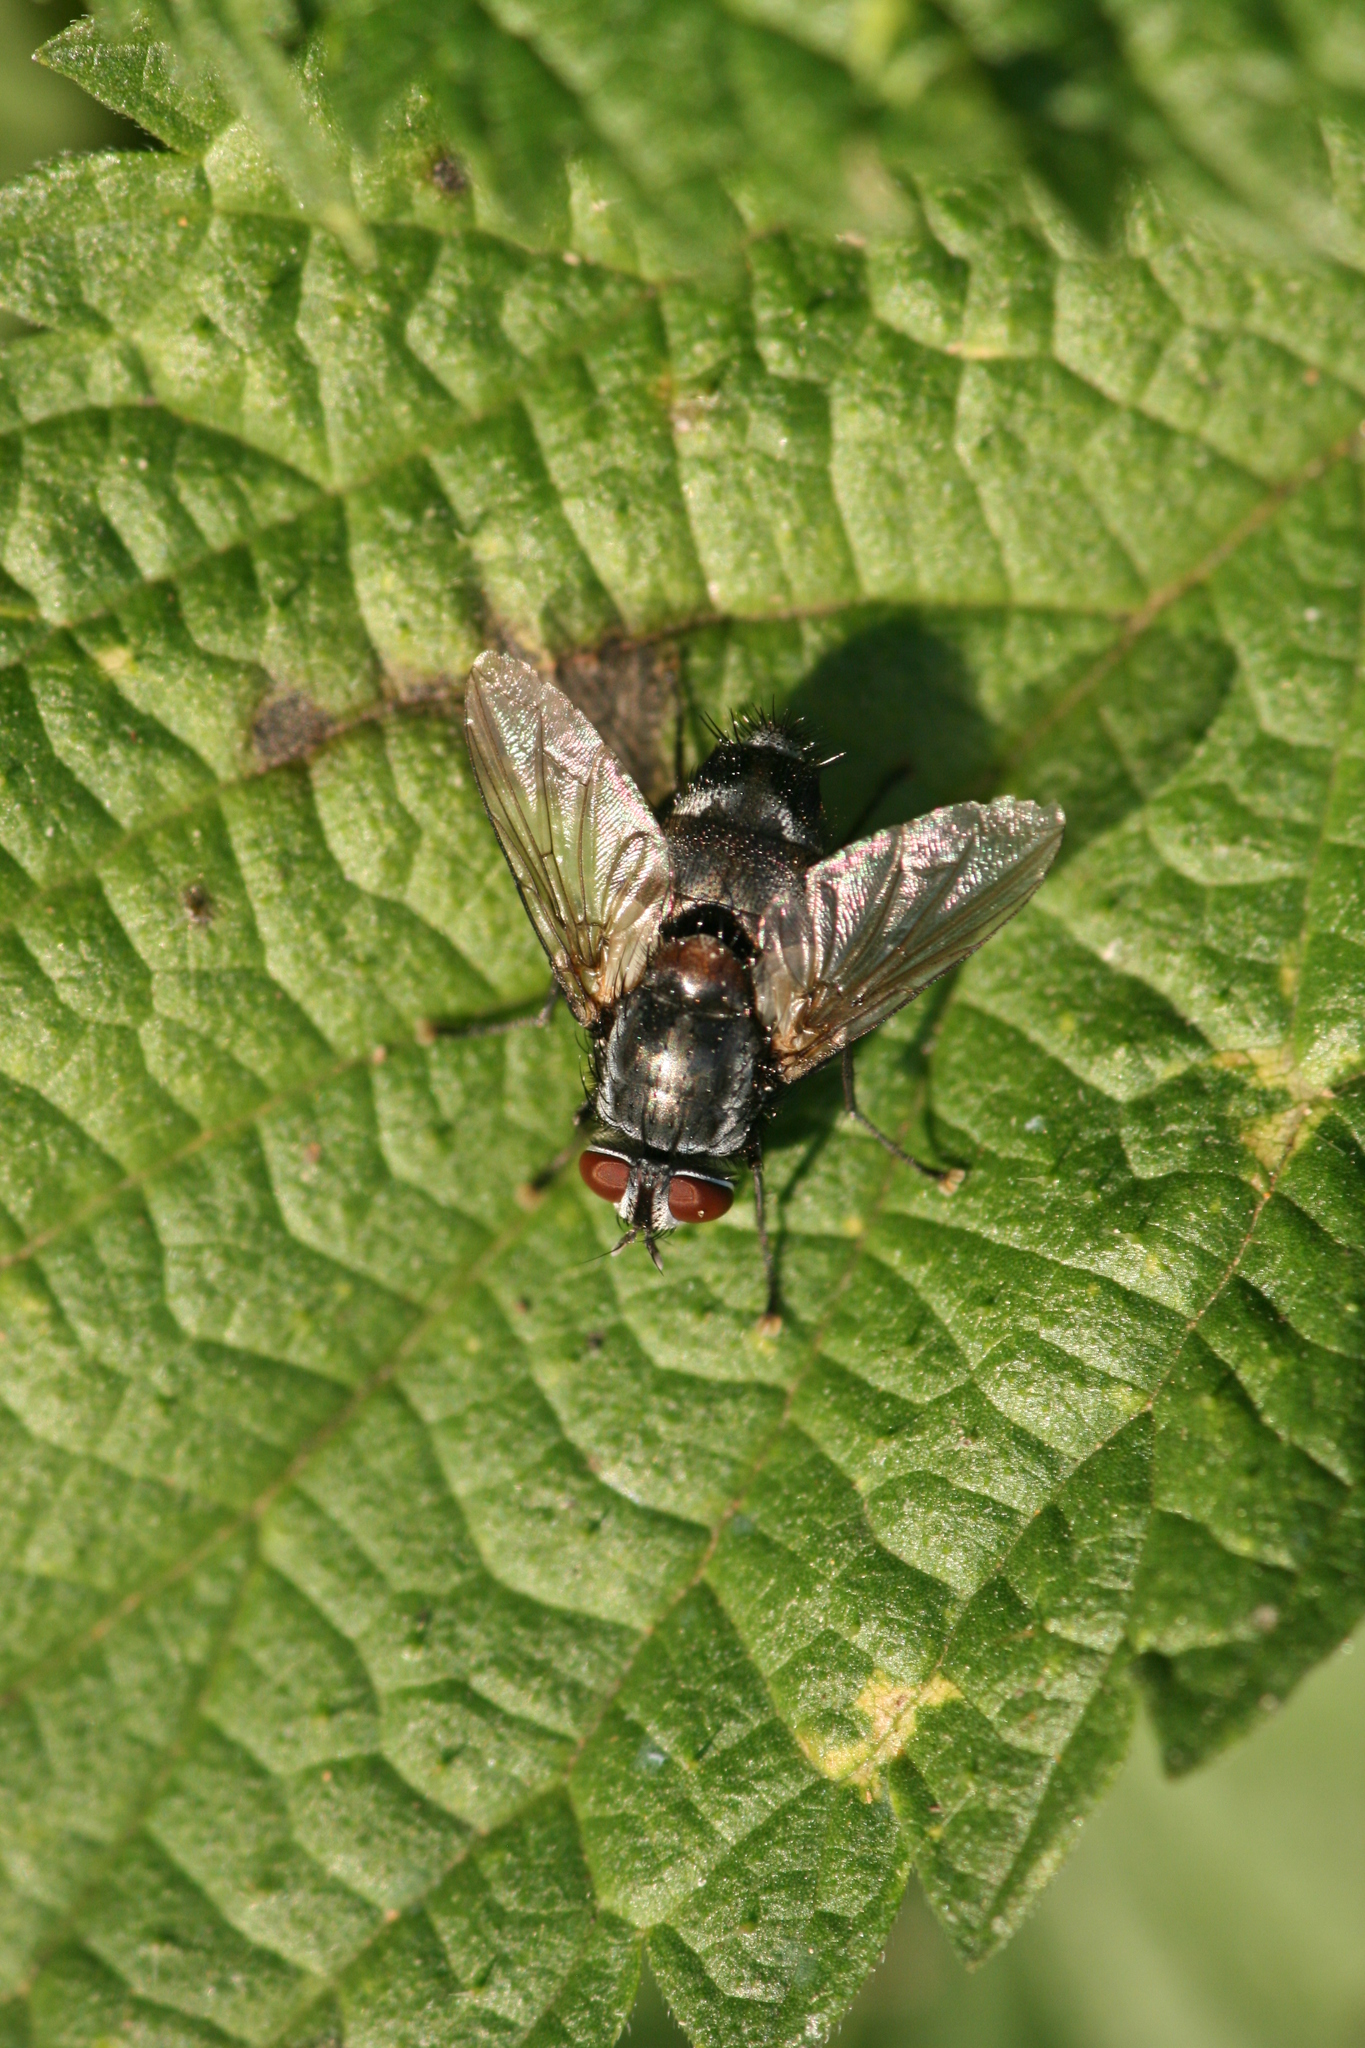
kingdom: Animalia
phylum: Arthropoda
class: Insecta
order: Diptera
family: Tachinidae
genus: Sturmia
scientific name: Sturmia bella
